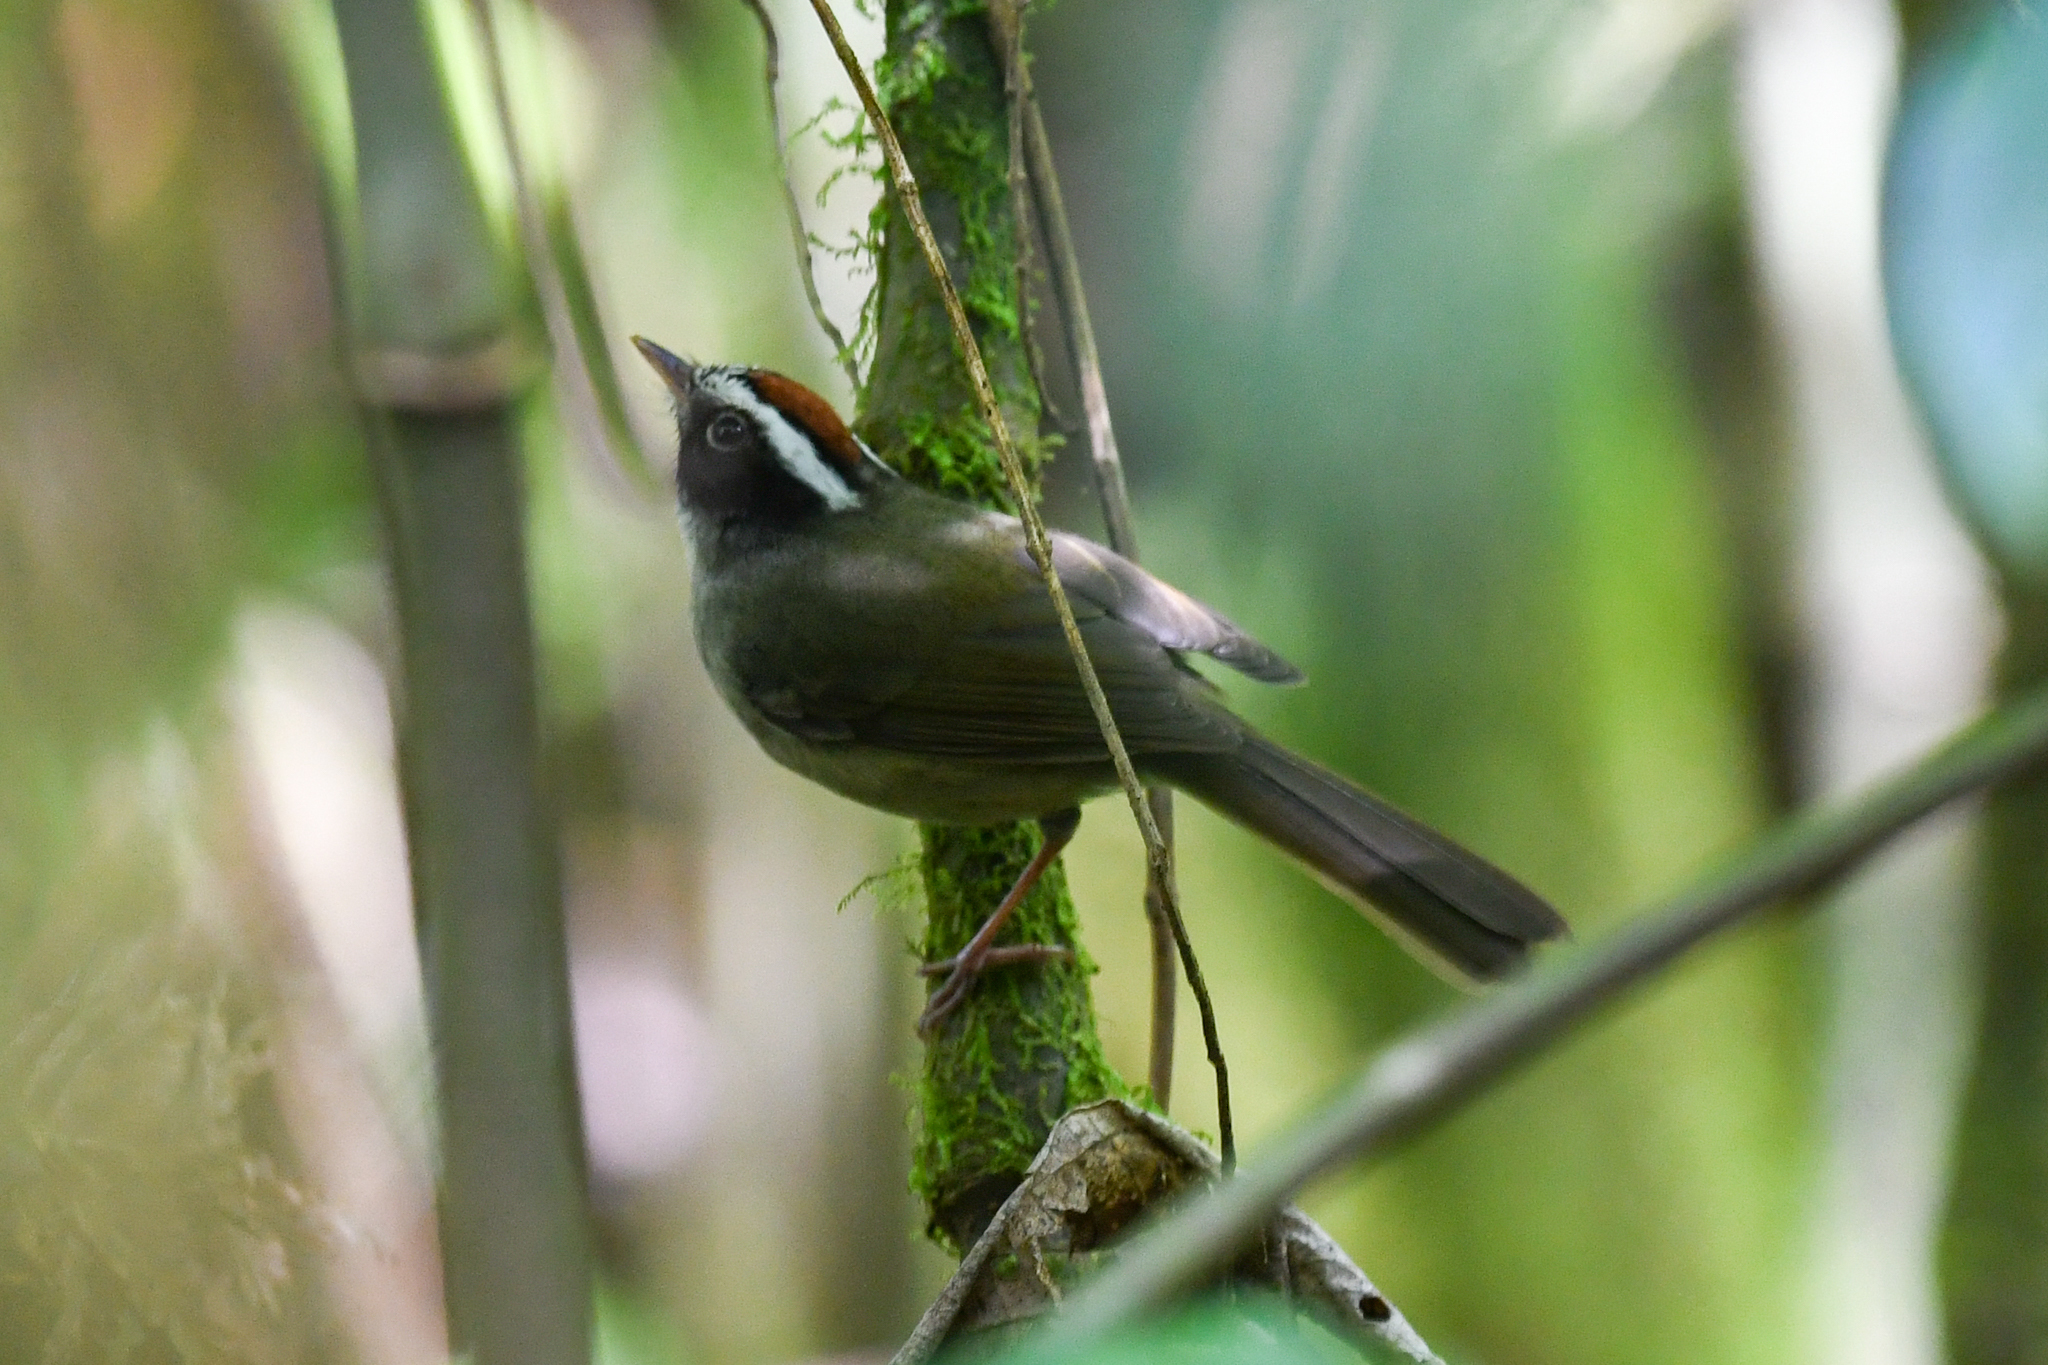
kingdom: Animalia
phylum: Chordata
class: Aves
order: Passeriformes
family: Parulidae
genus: Basileuterus
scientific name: Basileuterus melanogenys
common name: Black-cheeked warbler
